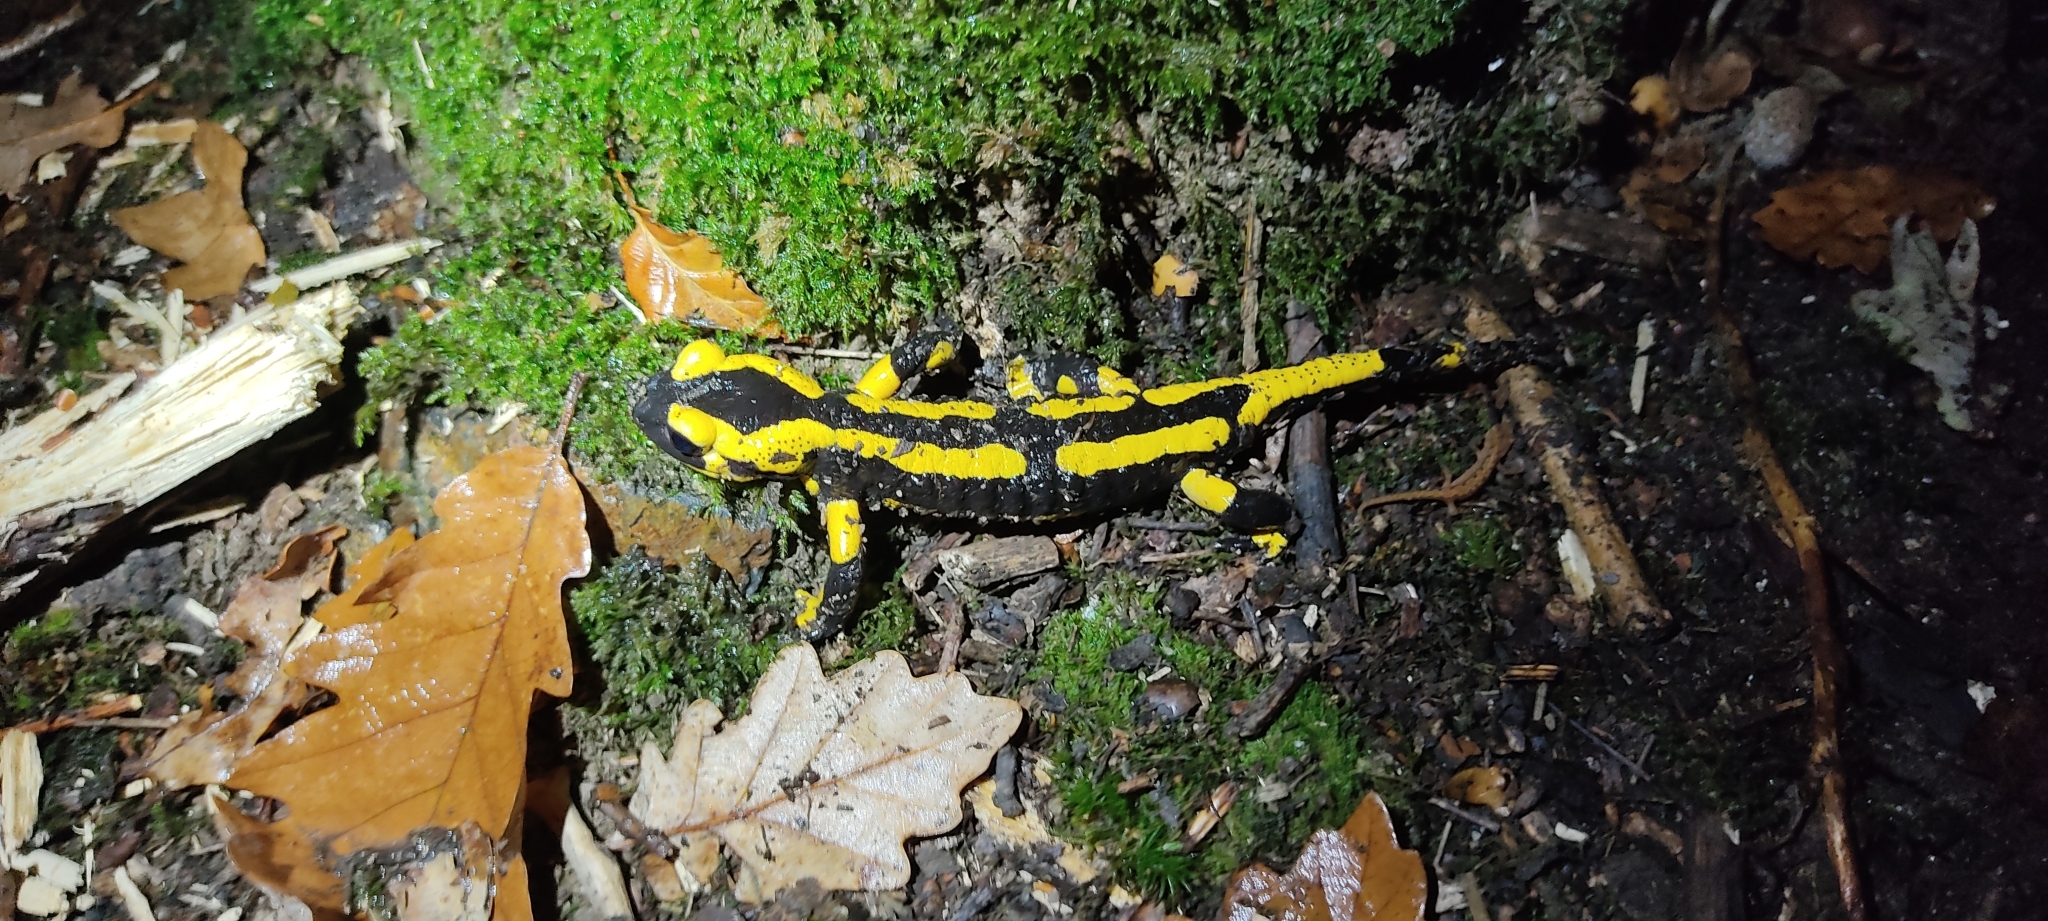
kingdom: Animalia
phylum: Chordata
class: Amphibia
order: Caudata
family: Salamandridae
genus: Salamandra
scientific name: Salamandra salamandra
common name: Fire salamander
